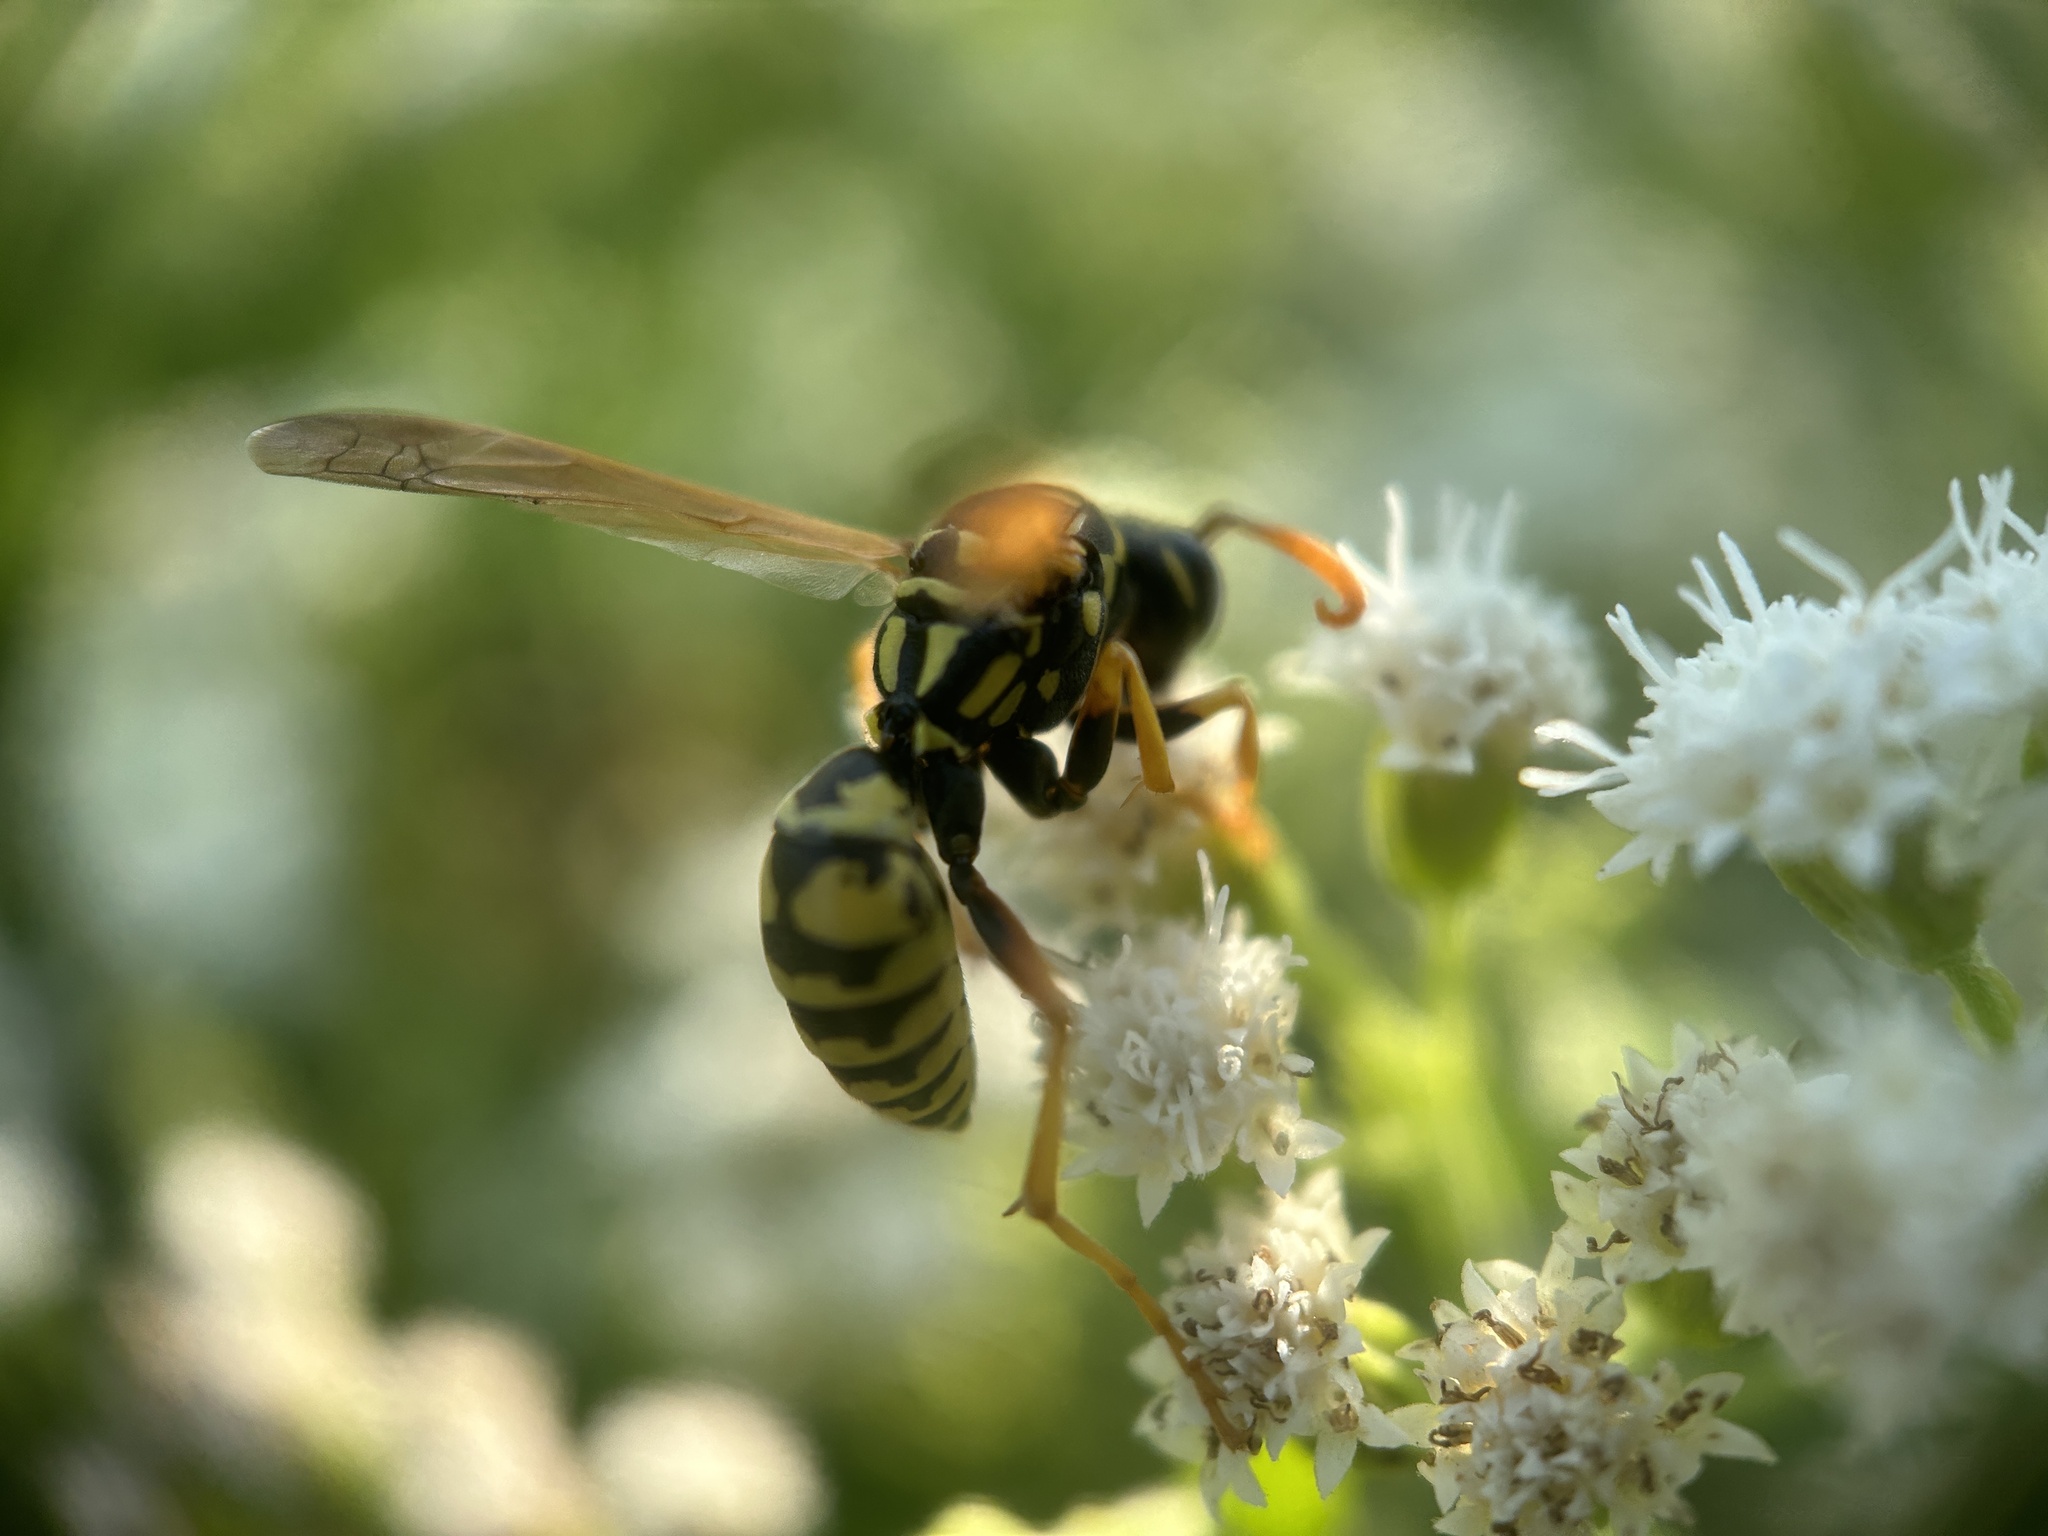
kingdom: Animalia
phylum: Arthropoda
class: Insecta
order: Hymenoptera
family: Eumenidae
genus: Polistes
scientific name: Polistes dominula
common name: Paper wasp
